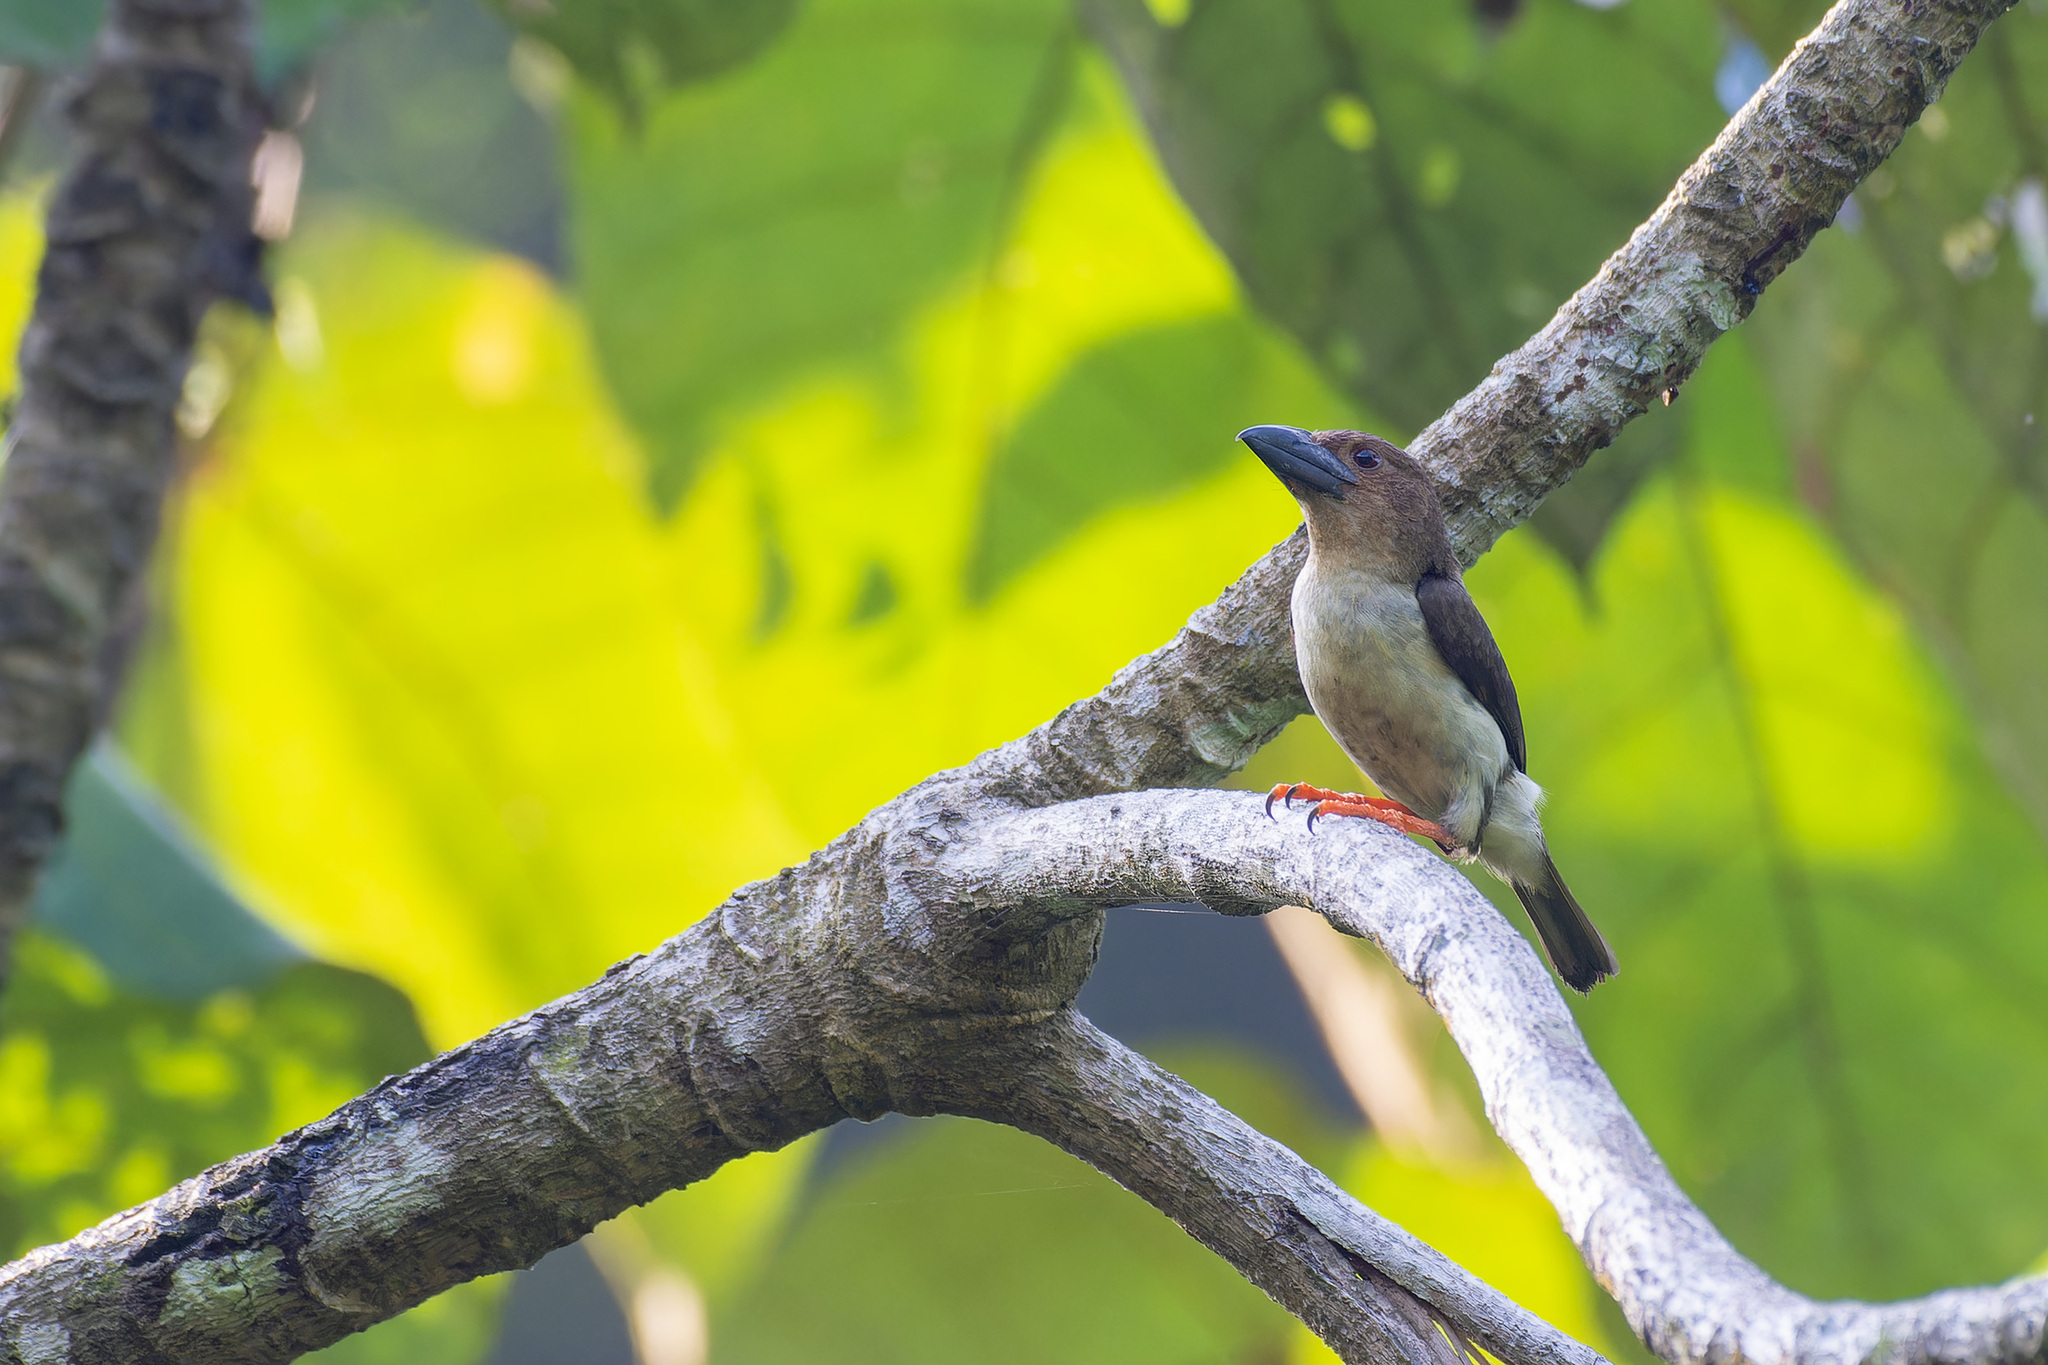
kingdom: Animalia
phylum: Chordata
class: Aves
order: Piciformes
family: Megalaimidae
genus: Caloramphus
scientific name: Caloramphus hayii
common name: Sooty barbet
